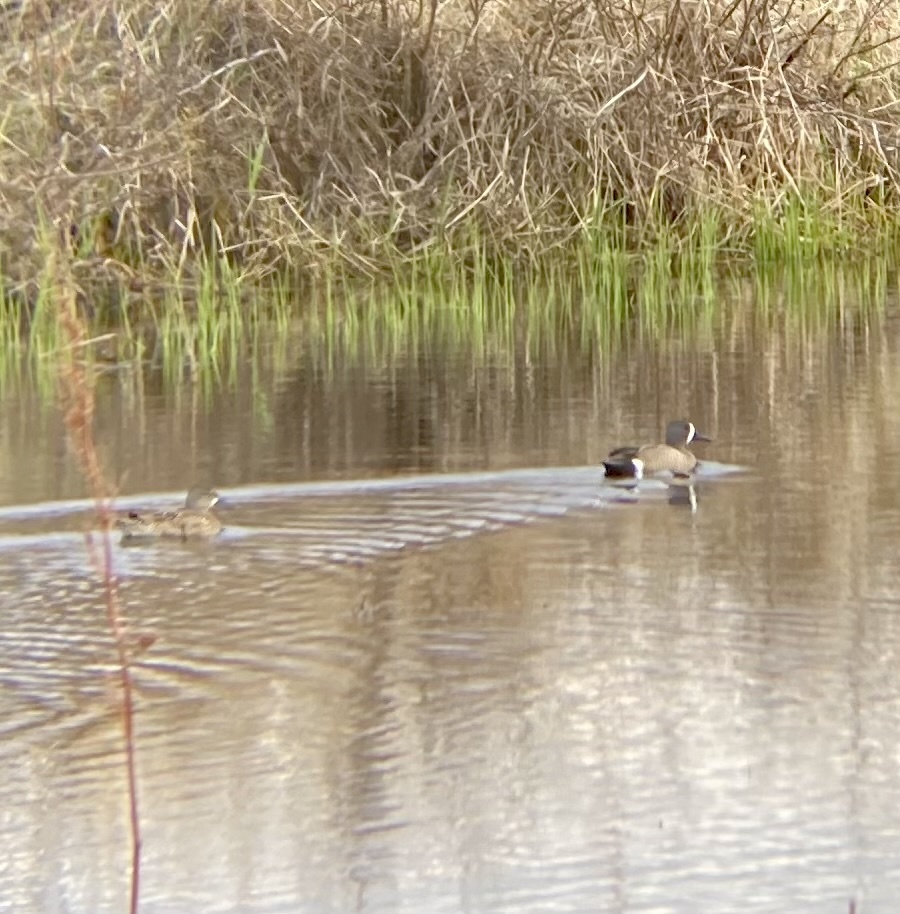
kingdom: Animalia
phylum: Chordata
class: Aves
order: Anseriformes
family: Anatidae
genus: Spatula
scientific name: Spatula discors
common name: Blue-winged teal
